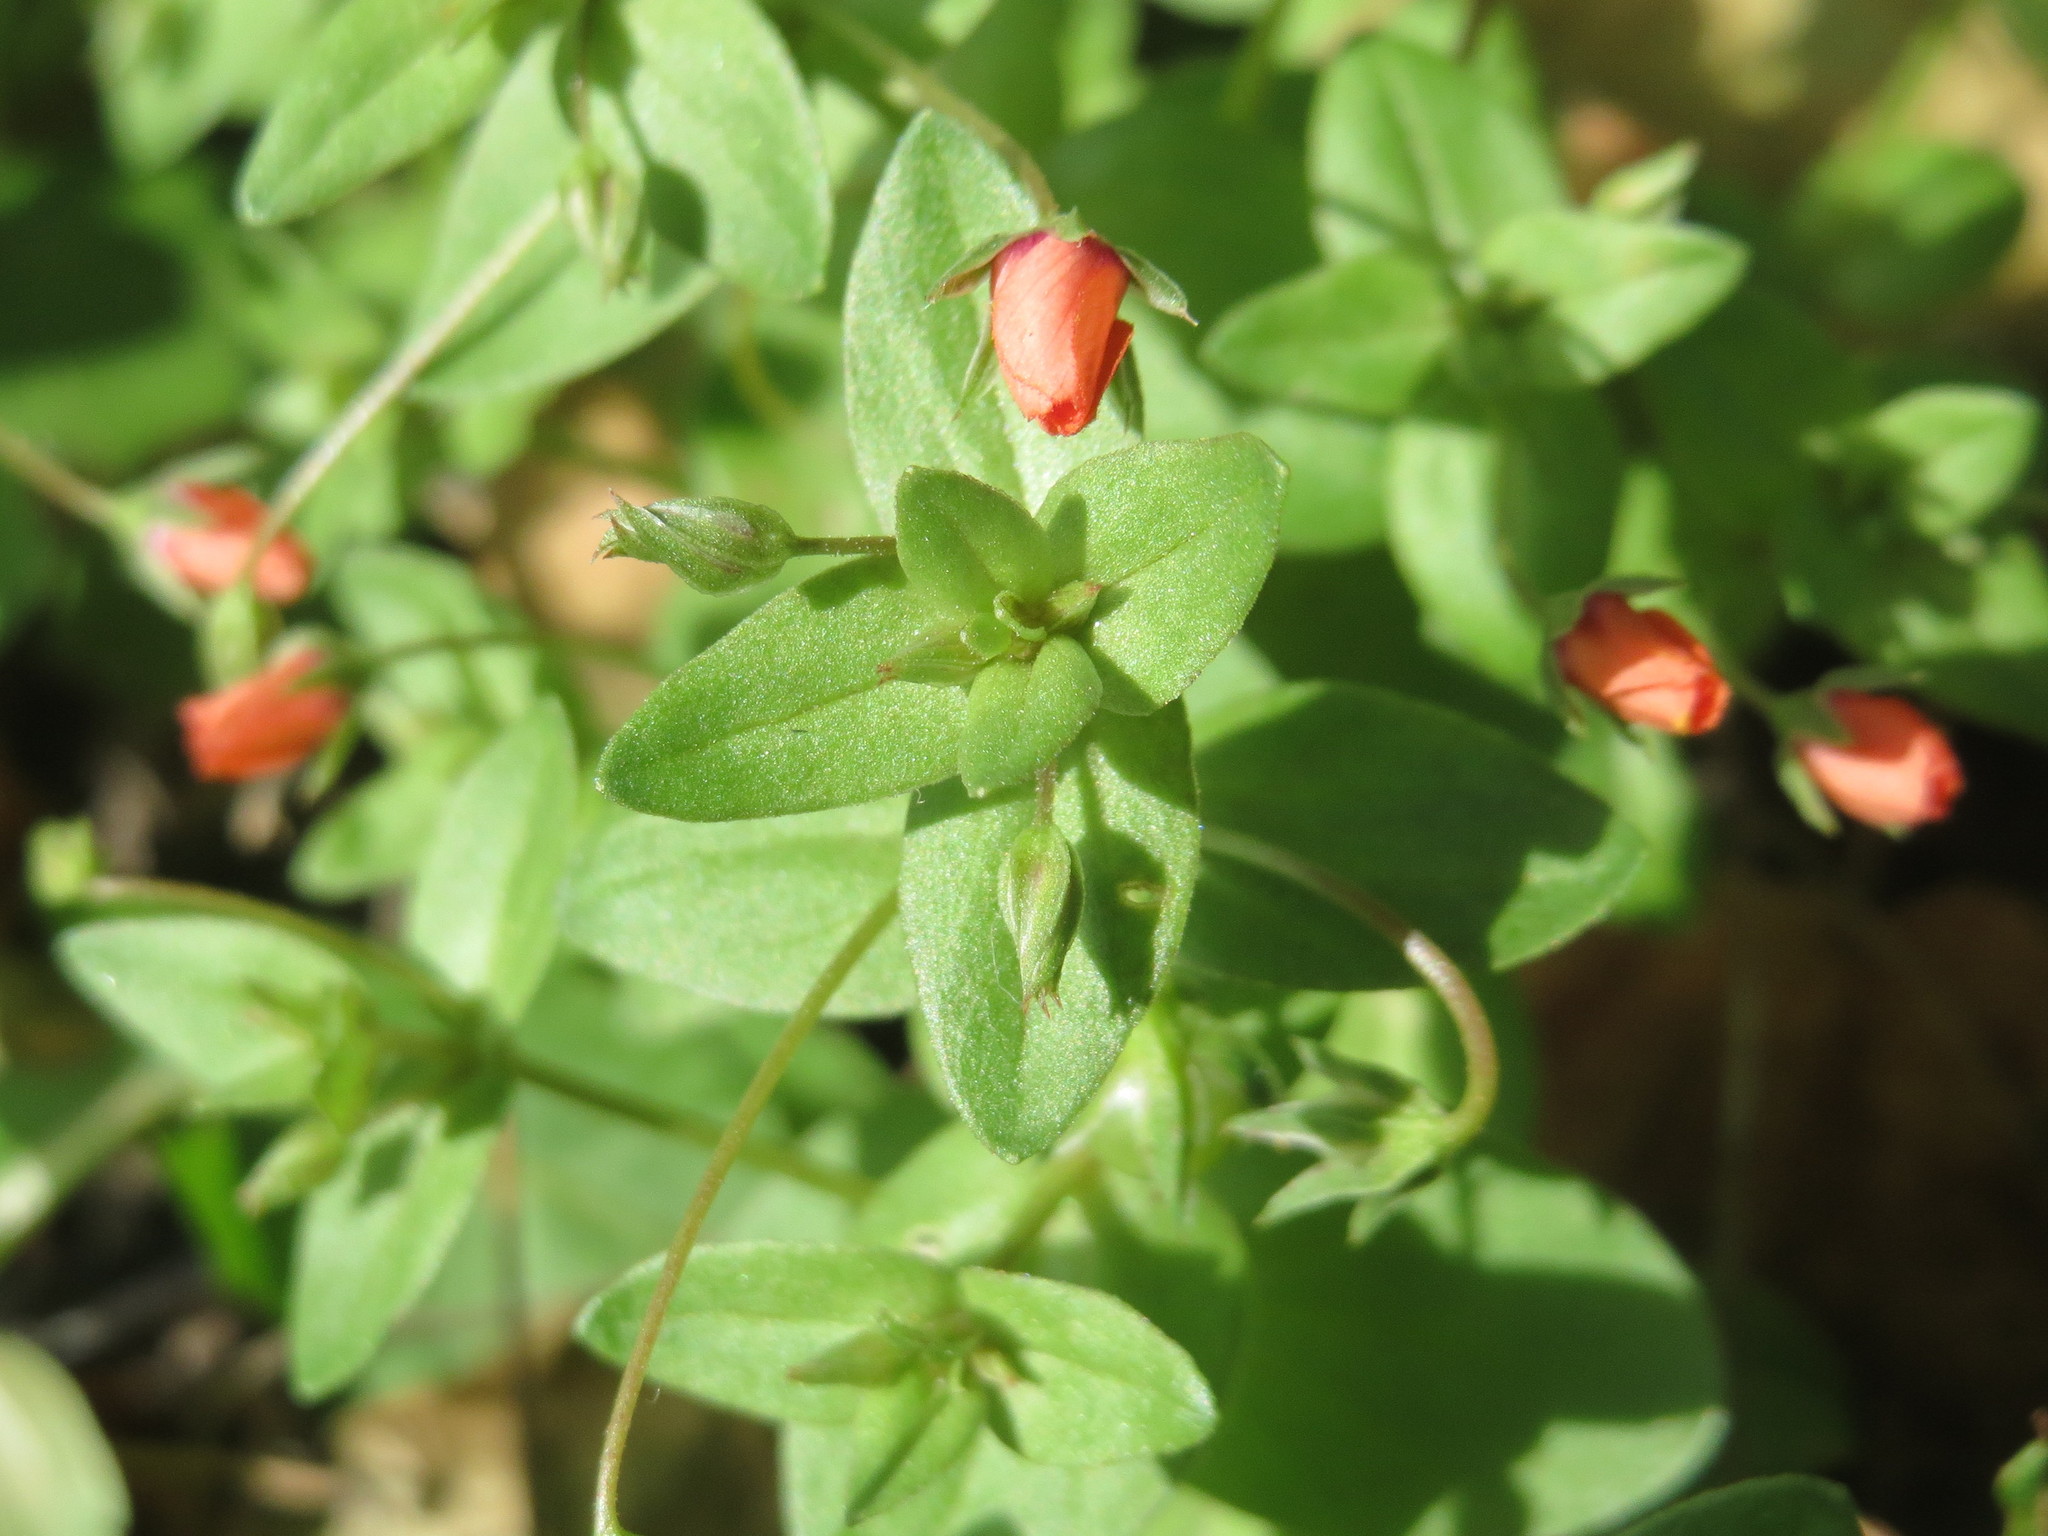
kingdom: Plantae
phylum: Tracheophyta
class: Magnoliopsida
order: Ericales
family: Primulaceae
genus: Lysimachia
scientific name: Lysimachia arvensis
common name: Scarlet pimpernel
